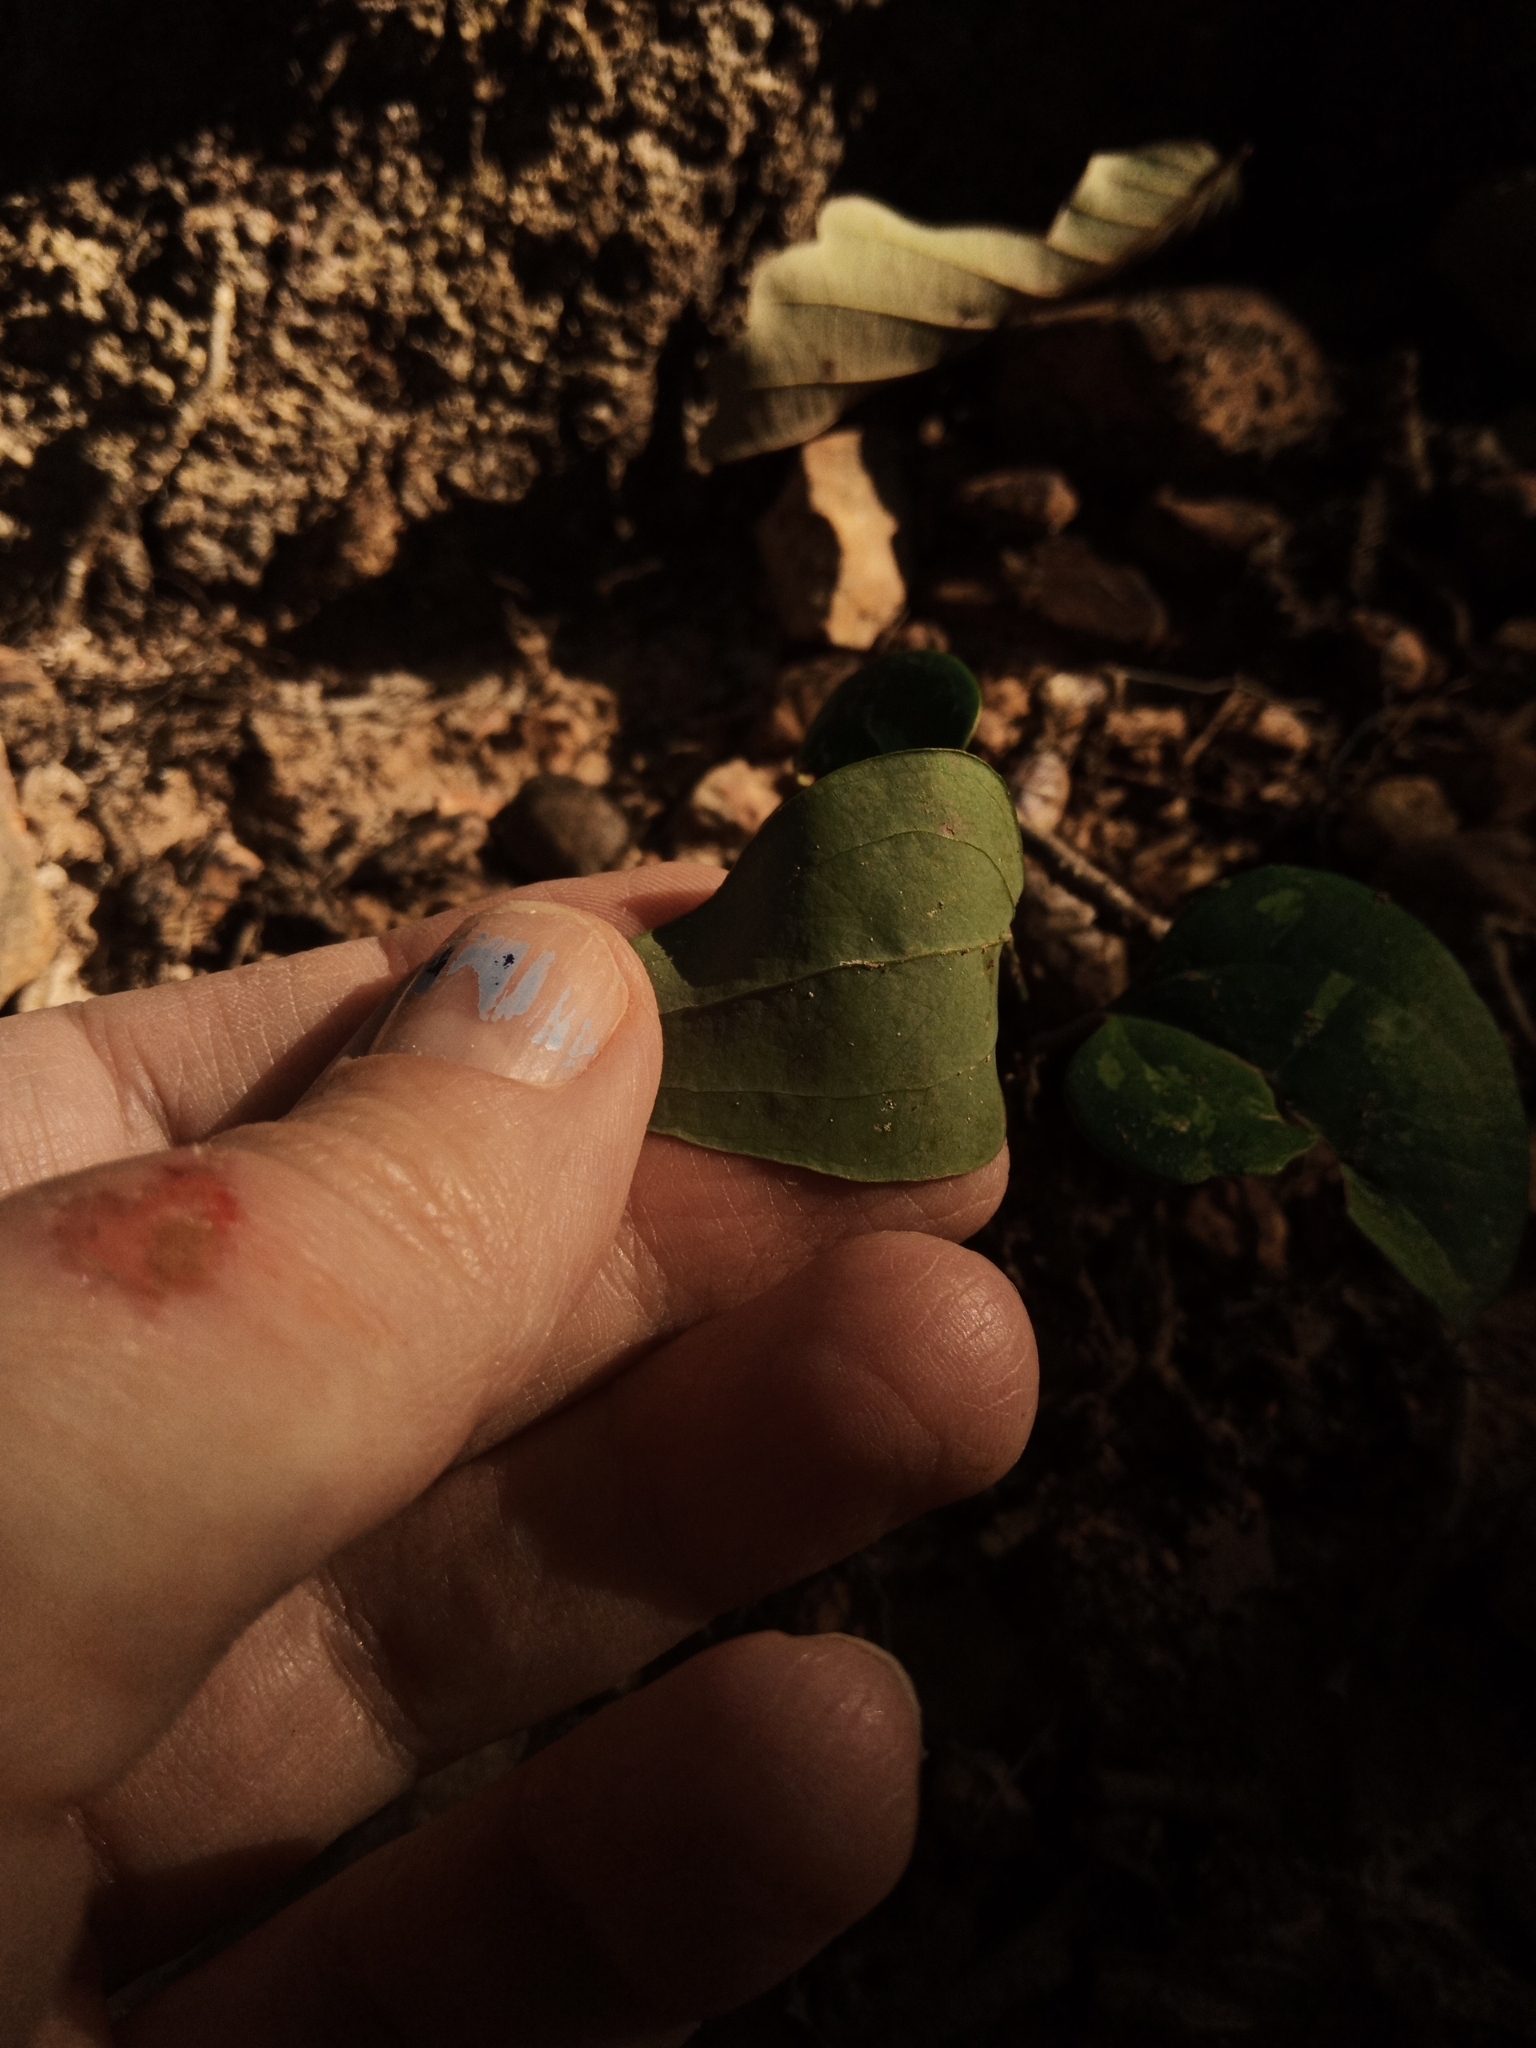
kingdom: Plantae
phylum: Tracheophyta
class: Liliopsida
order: Liliales
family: Smilacaceae
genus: Smilax
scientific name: Smilax glauca
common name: Cat greenbrier
